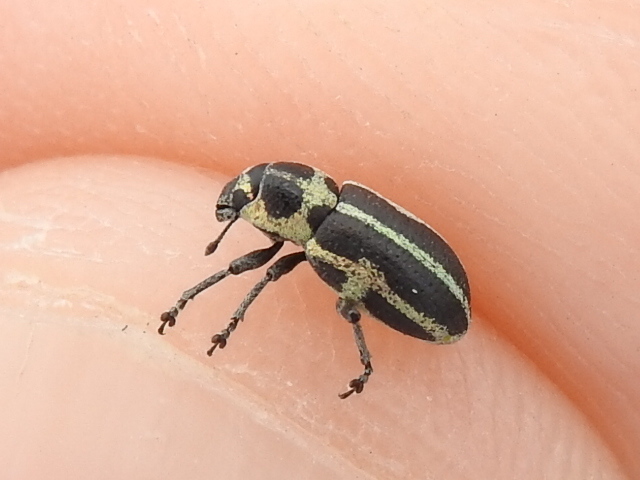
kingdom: Animalia
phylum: Arthropoda
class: Insecta
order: Coleoptera
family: Curculionidae
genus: Eudiagogus
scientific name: Eudiagogus pulcher
